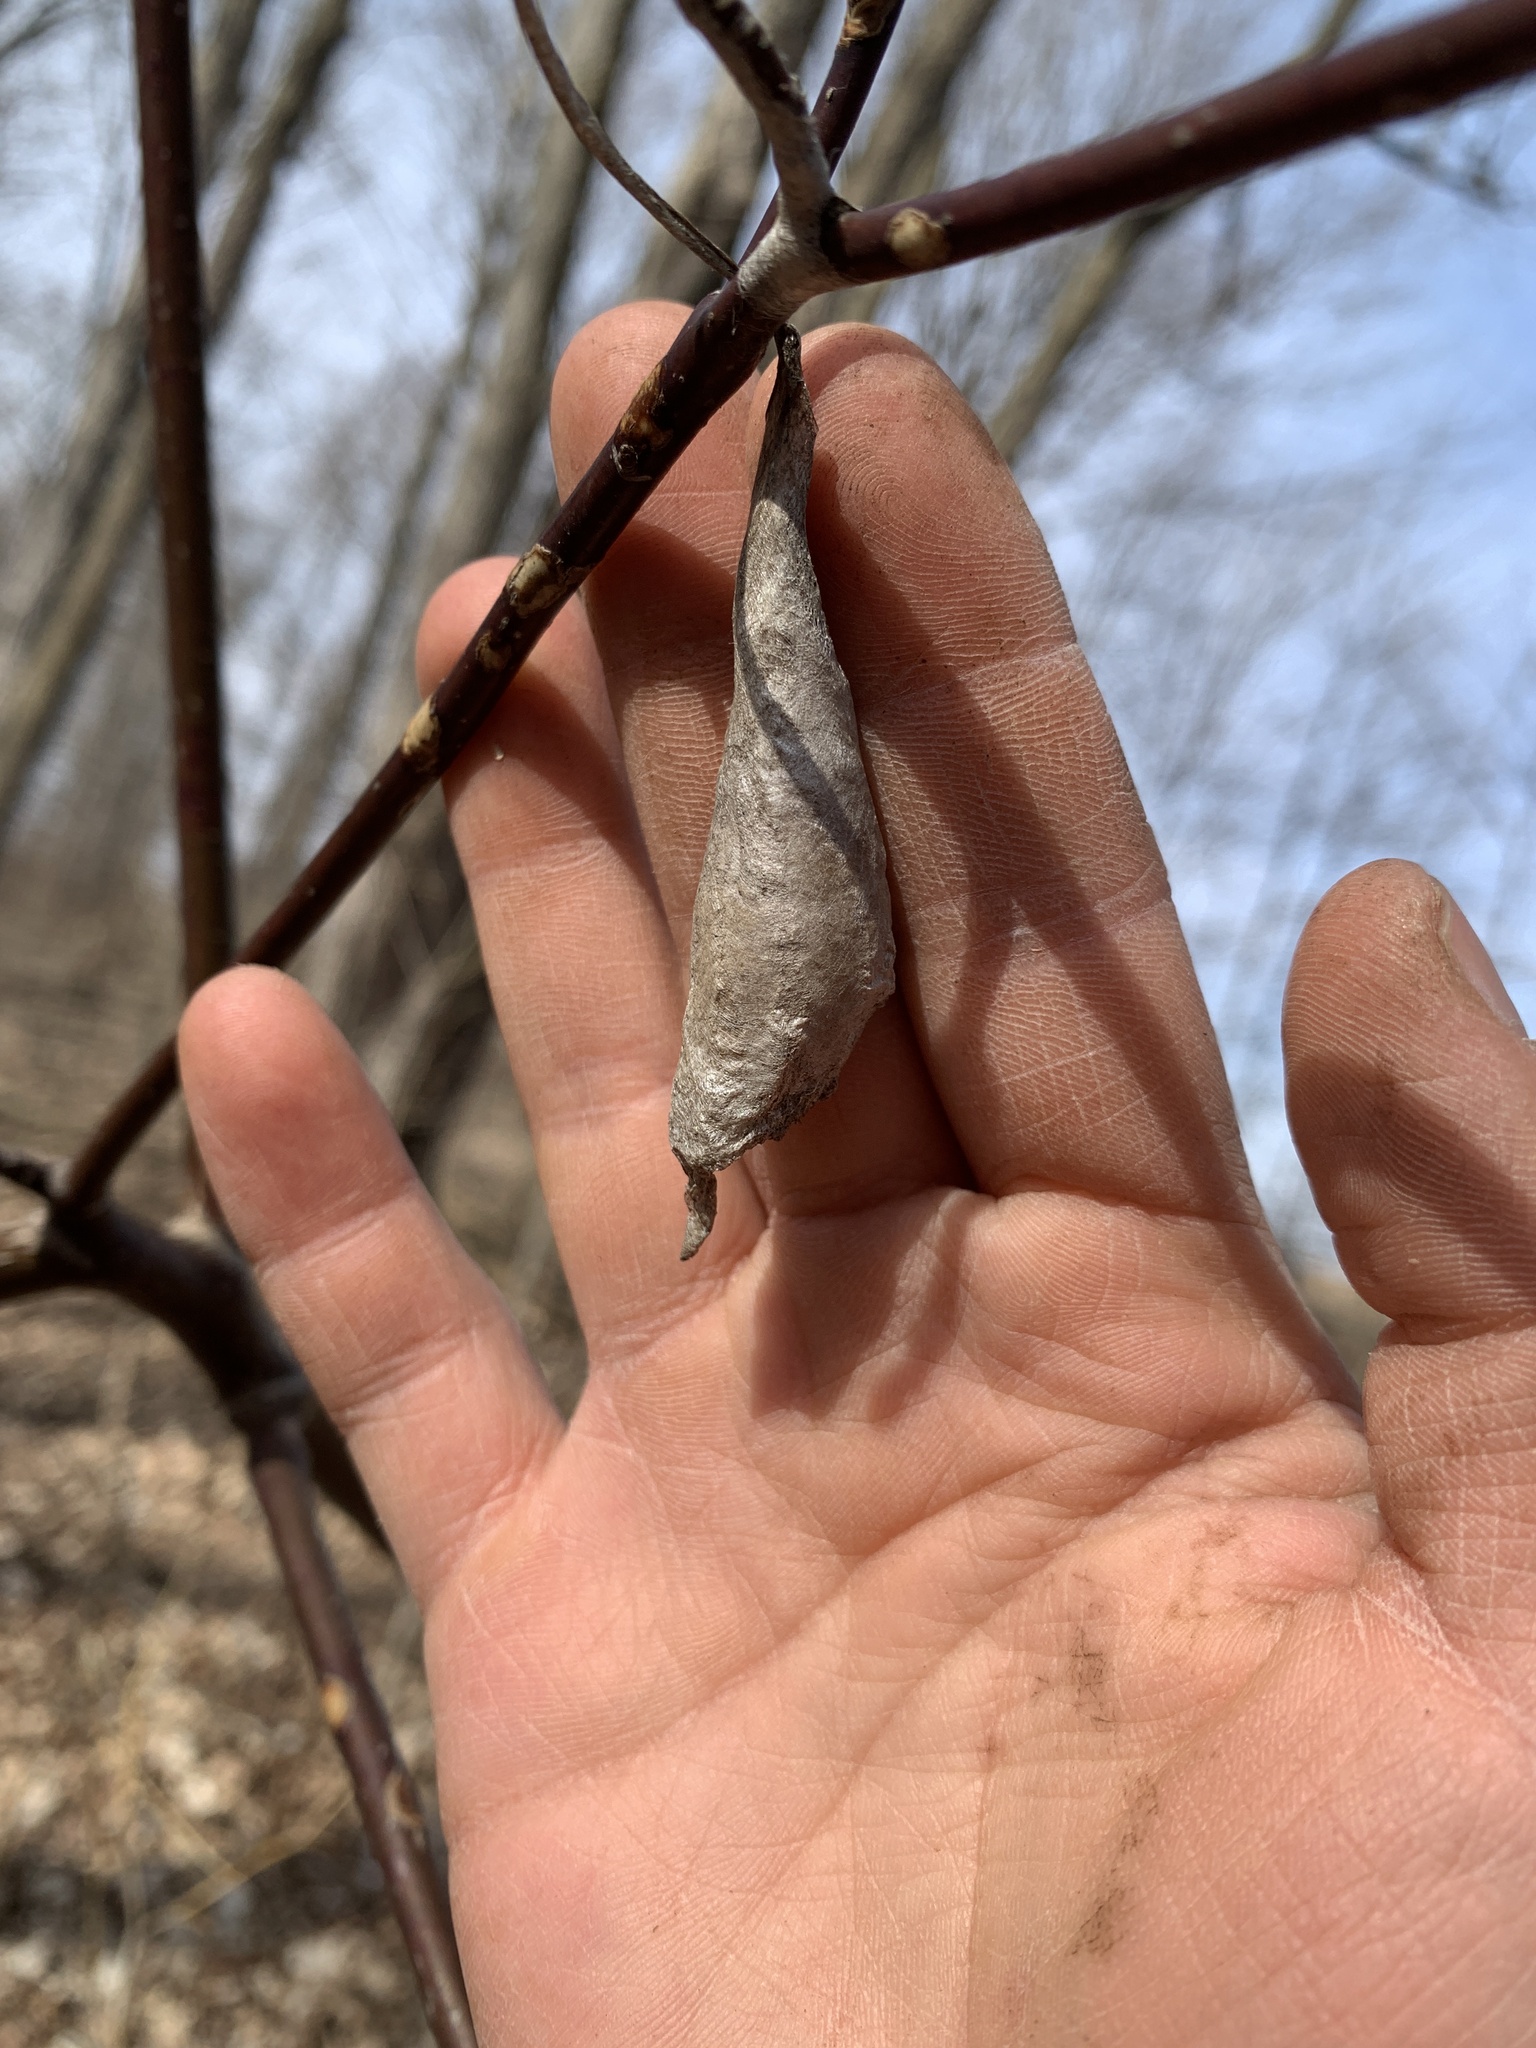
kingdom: Animalia
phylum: Arthropoda
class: Insecta
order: Lepidoptera
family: Saturniidae
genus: Callosamia
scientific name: Callosamia promethea
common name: Promethea silkmoth
